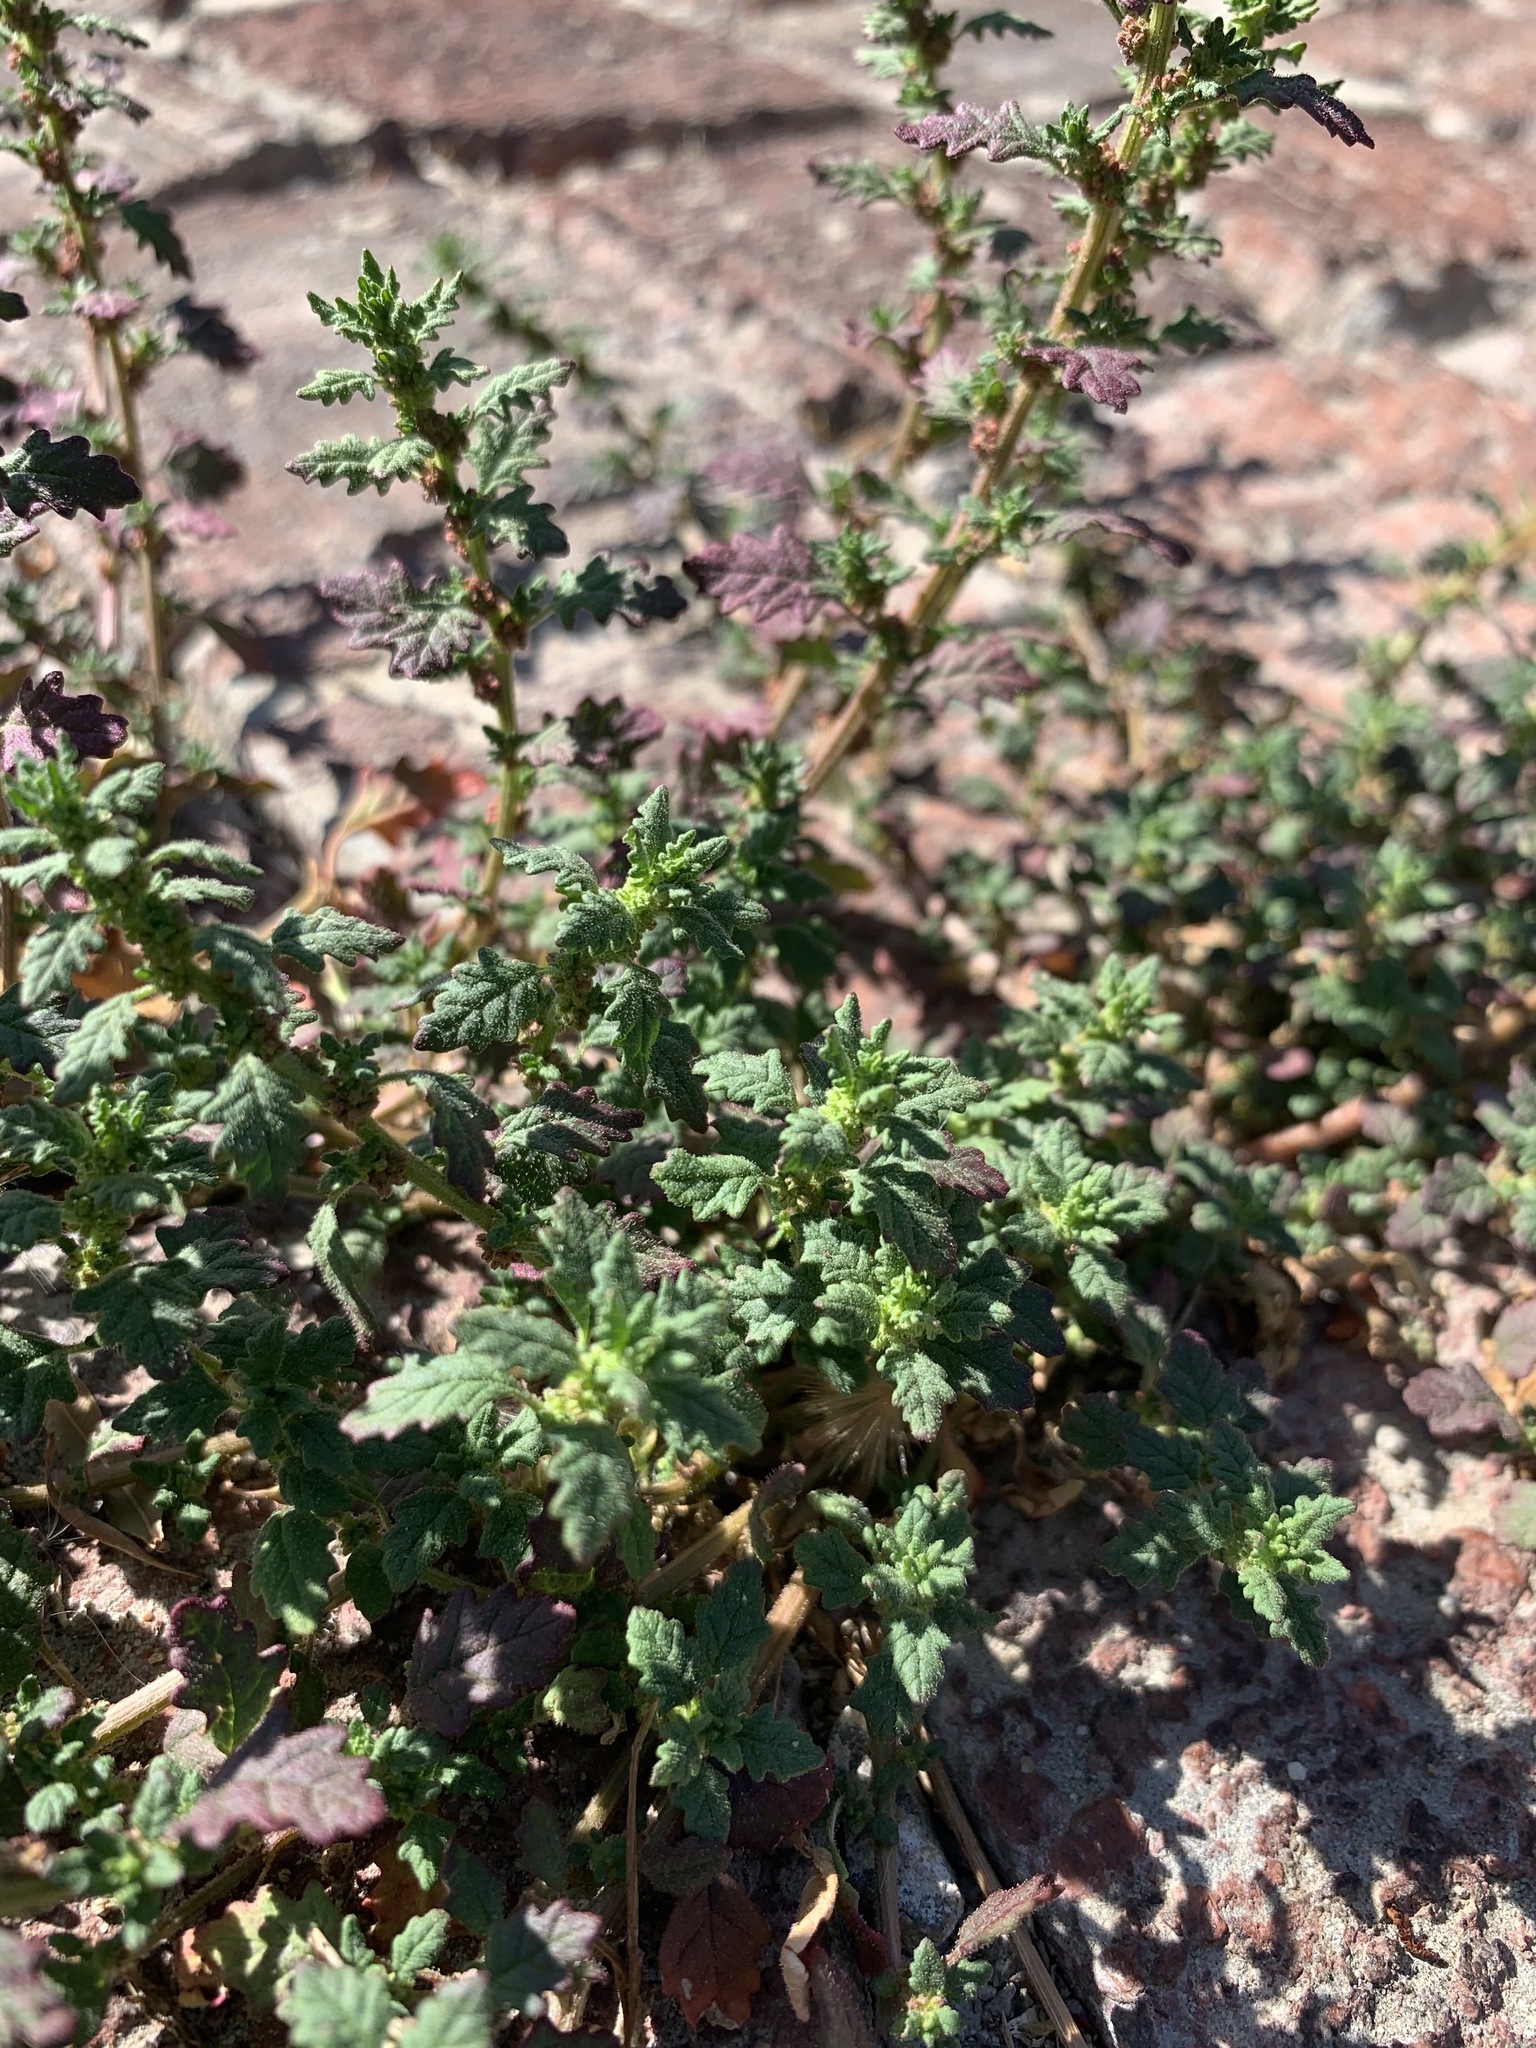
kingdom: Plantae
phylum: Tracheophyta
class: Magnoliopsida
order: Caryophyllales
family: Amaranthaceae
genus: Dysphania
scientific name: Dysphania pumilio
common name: Clammy goosefoot
